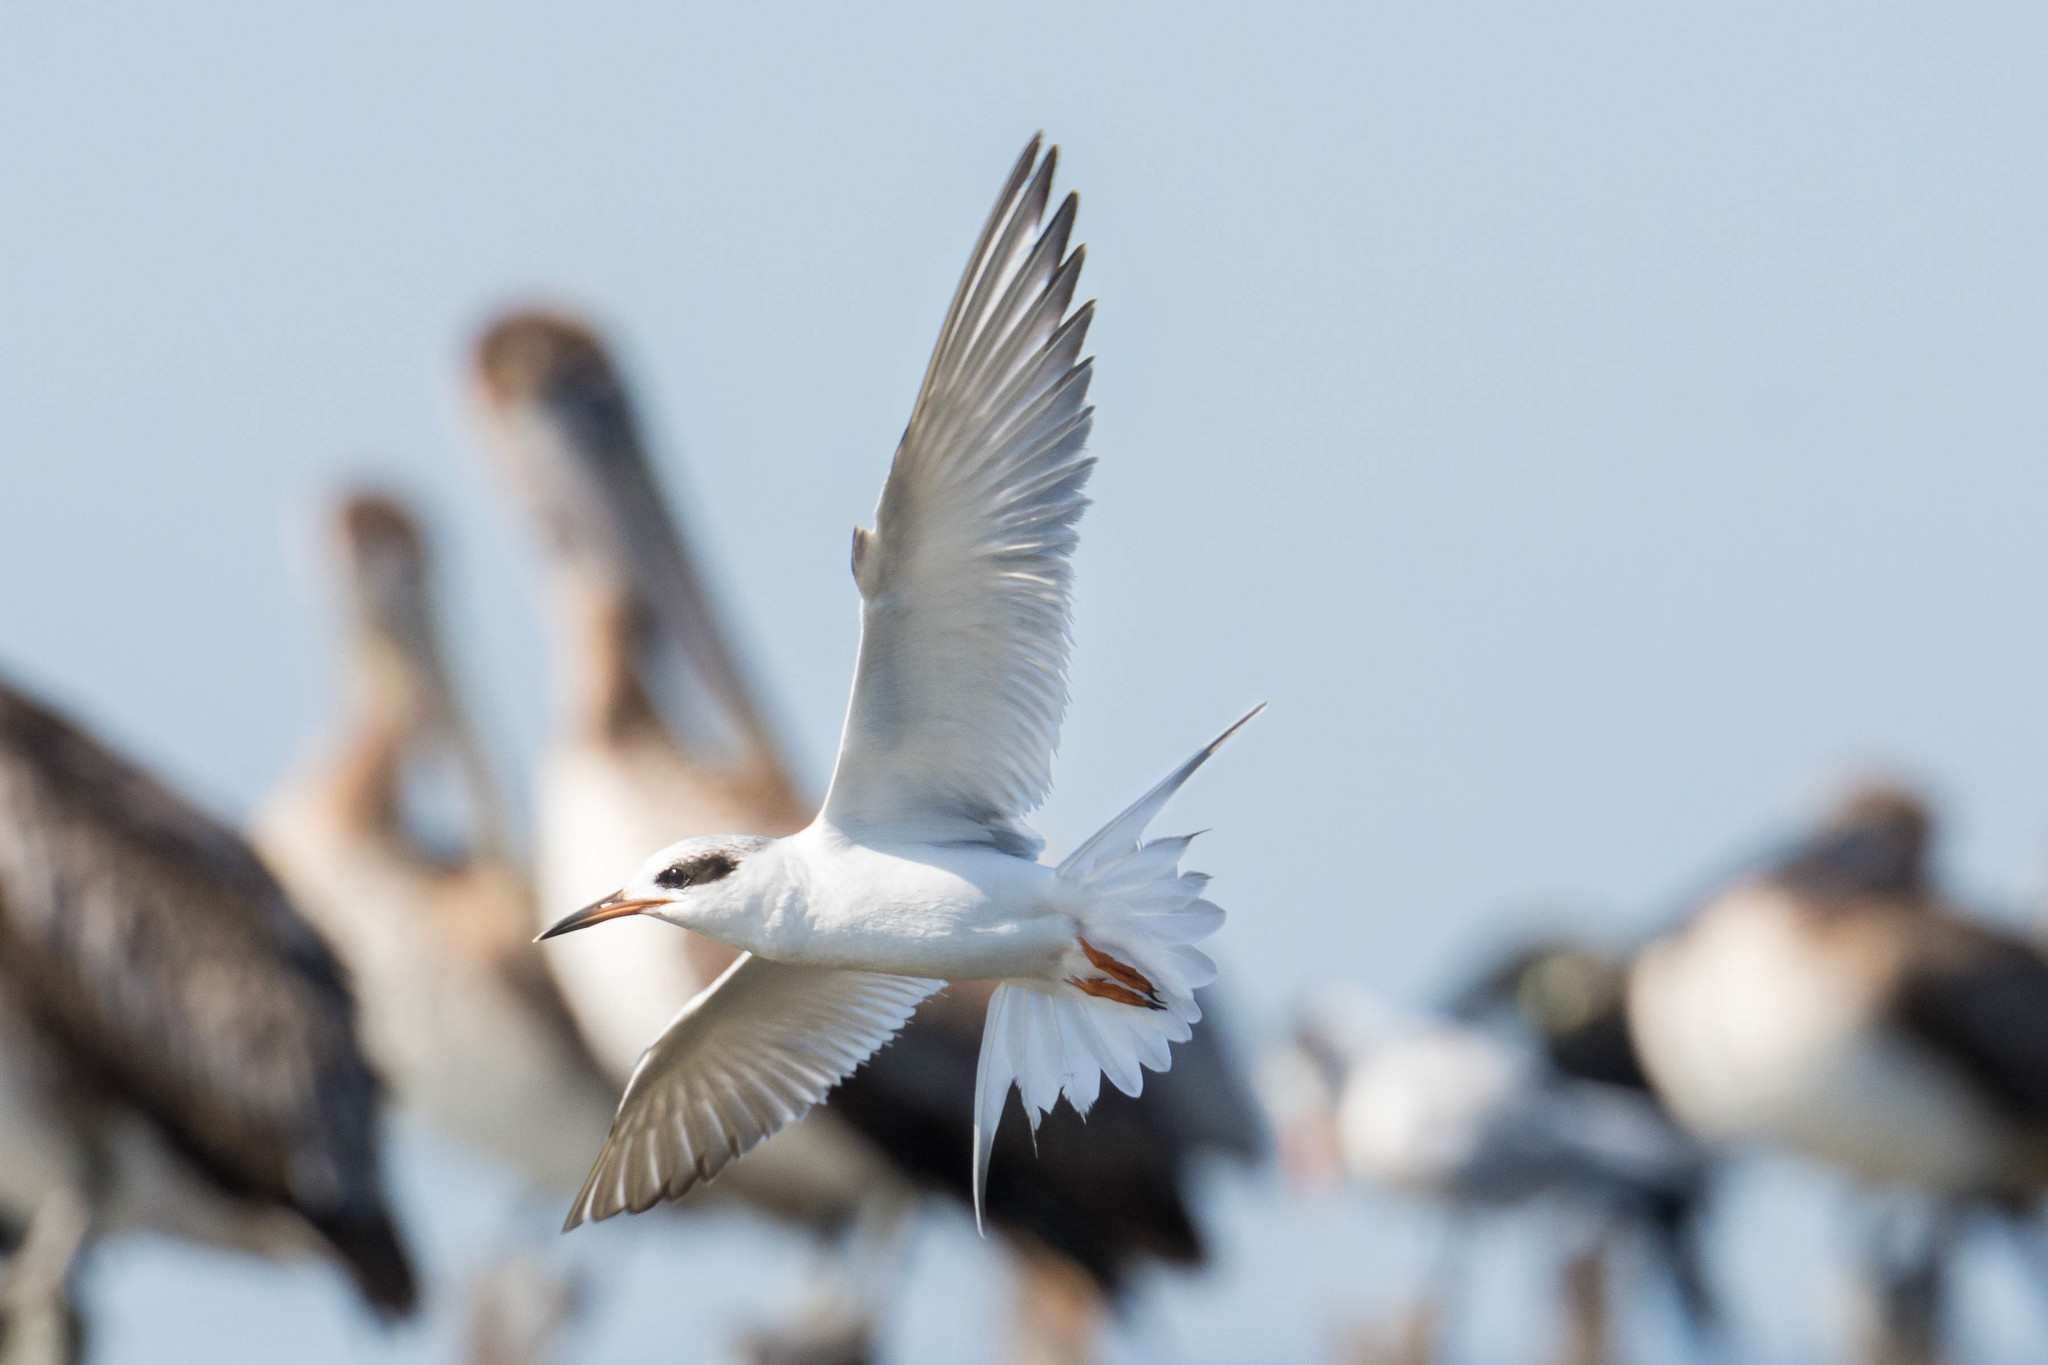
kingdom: Animalia
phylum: Chordata
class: Aves
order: Charadriiformes
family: Laridae
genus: Sterna
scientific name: Sterna forsteri
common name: Forster's tern
